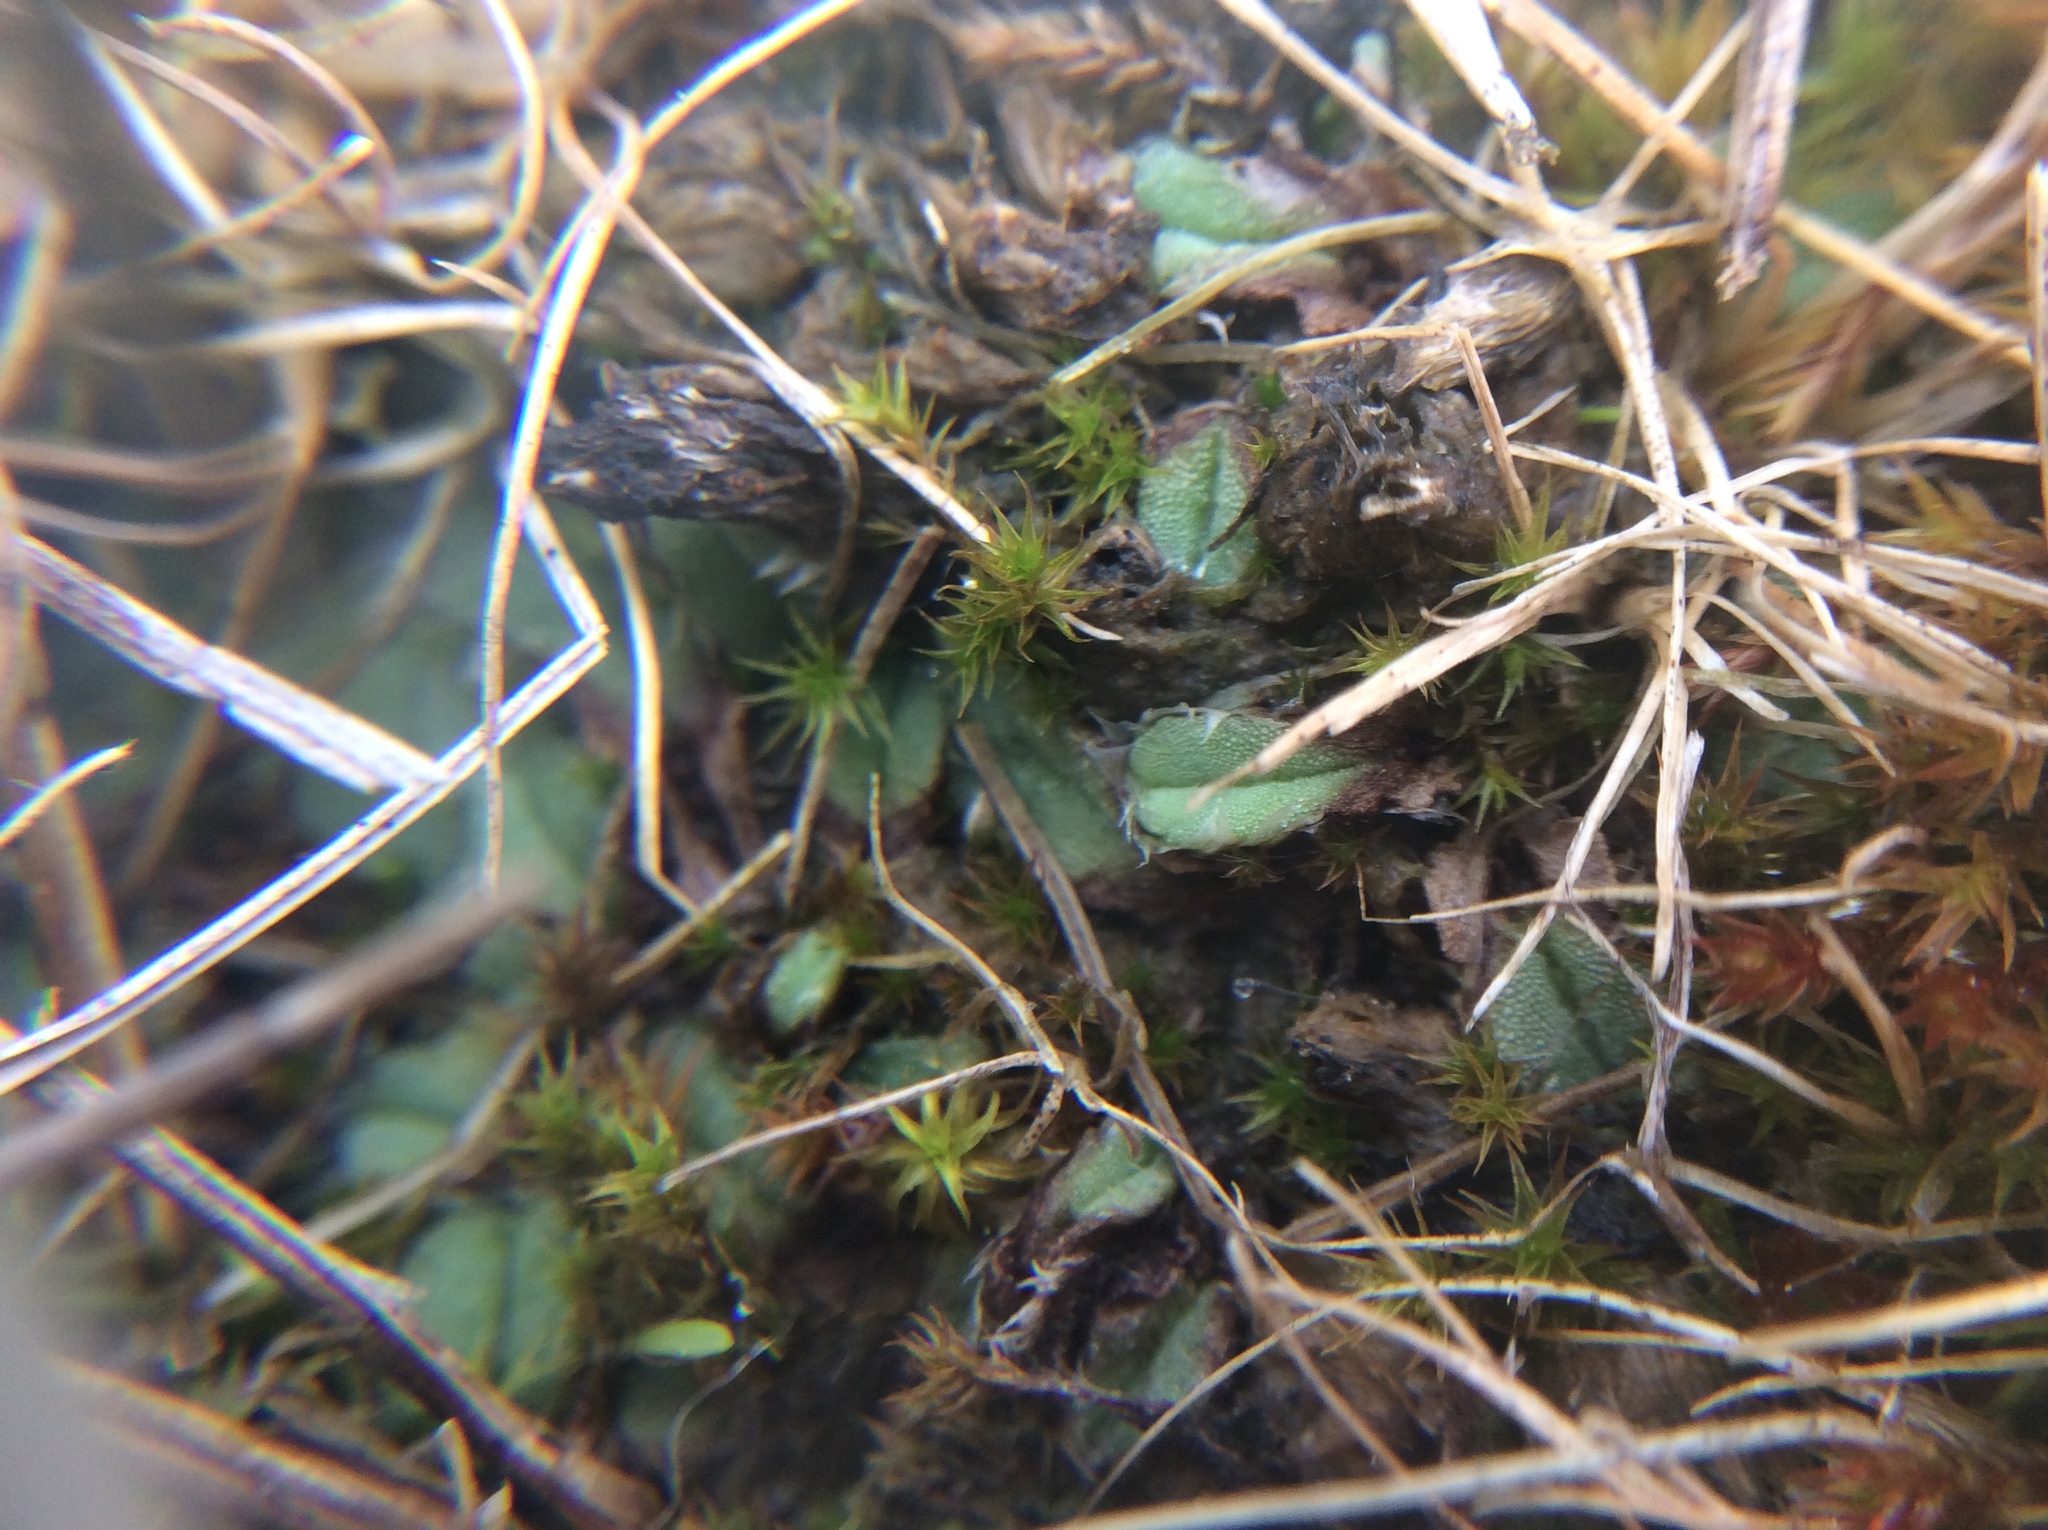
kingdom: Plantae
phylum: Marchantiophyta
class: Marchantiopsida
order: Marchantiales
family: Ricciaceae
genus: Oxymitra
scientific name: Oxymitra incrassata
